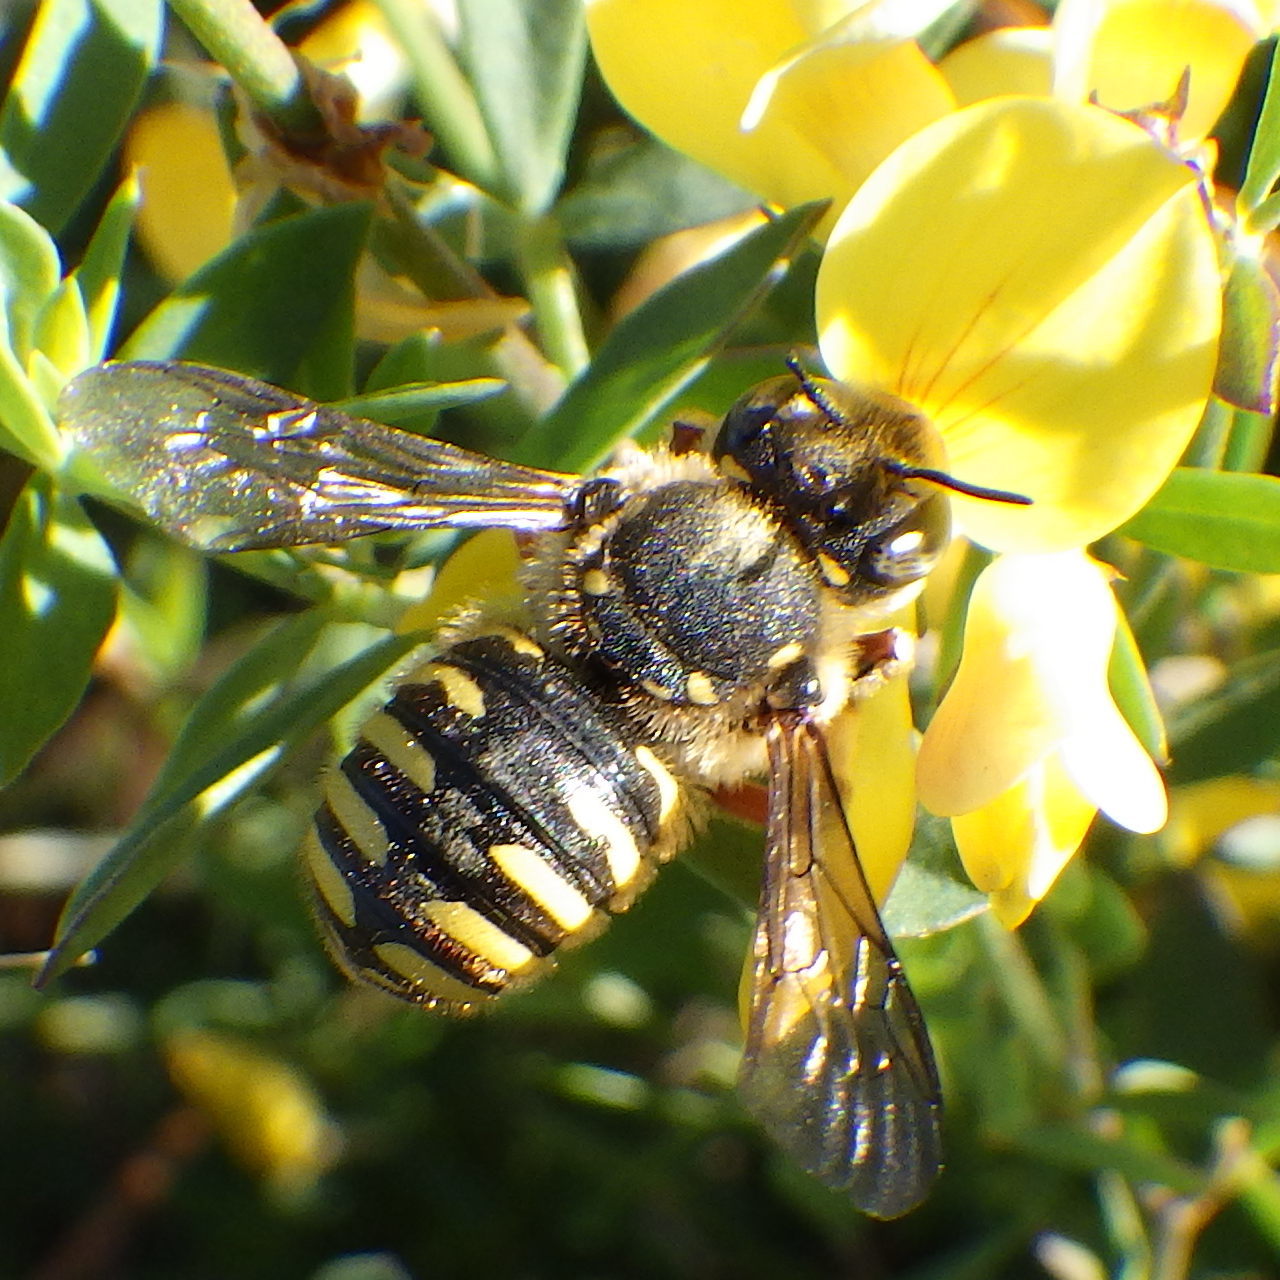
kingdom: Animalia
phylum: Arthropoda
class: Insecta
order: Hymenoptera
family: Megachilidae
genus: Anthidium
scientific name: Anthidium manicatum
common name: Wool carder bee
